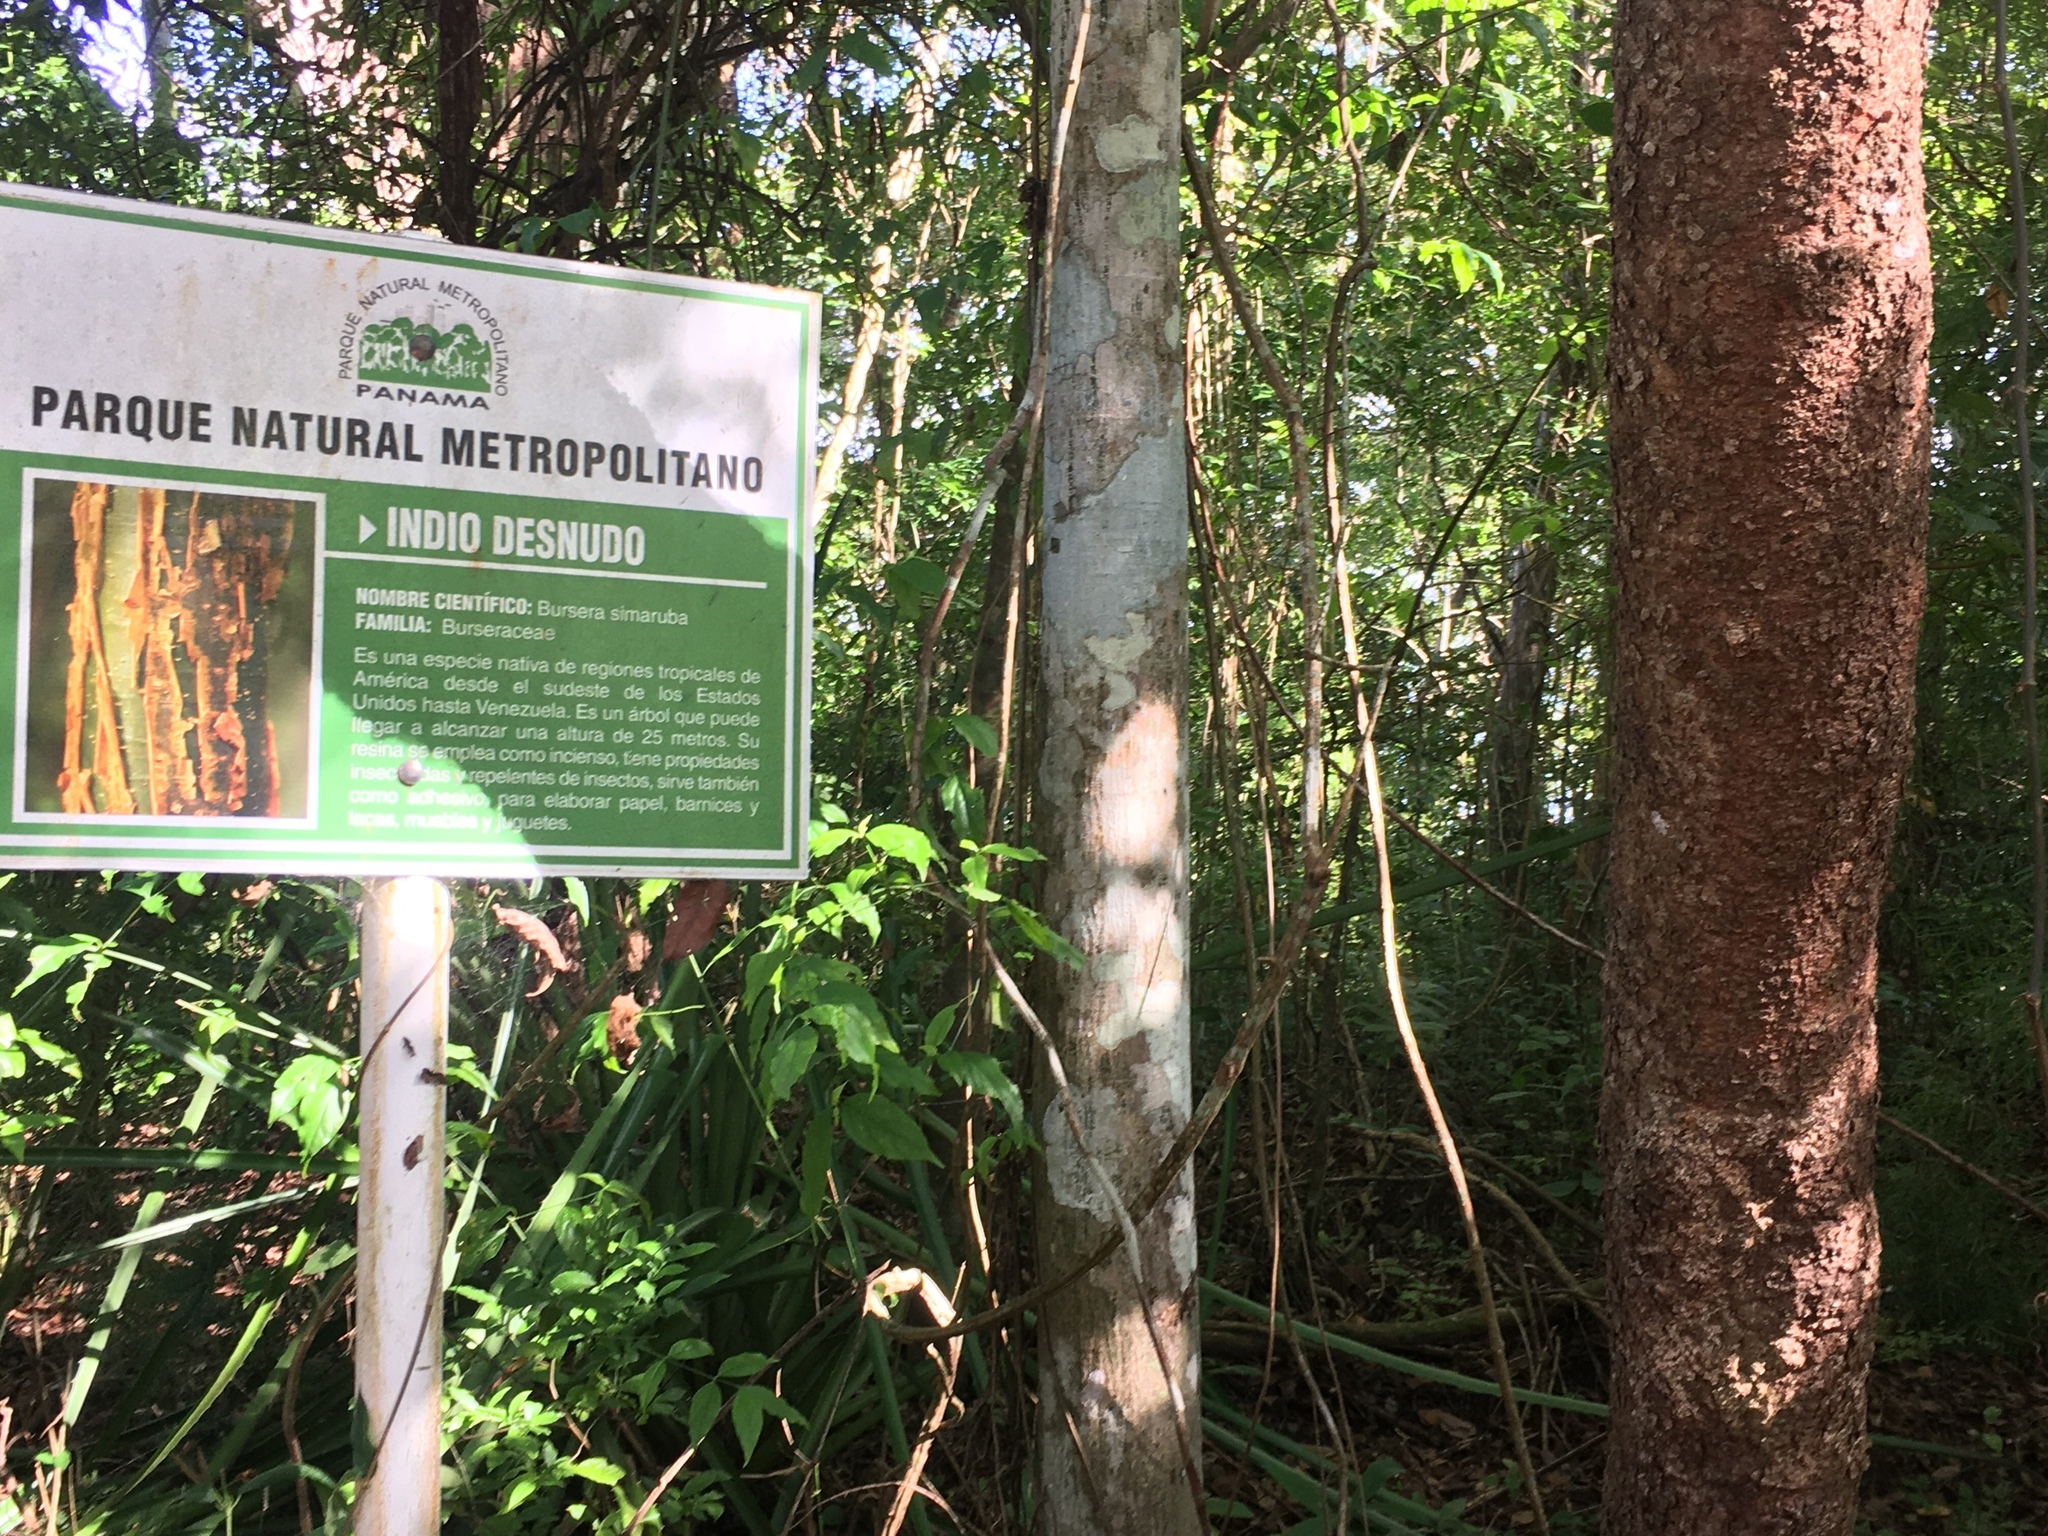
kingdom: Plantae
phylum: Tracheophyta
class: Magnoliopsida
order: Sapindales
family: Burseraceae
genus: Bursera
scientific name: Bursera simaruba
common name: Turpentine tree
